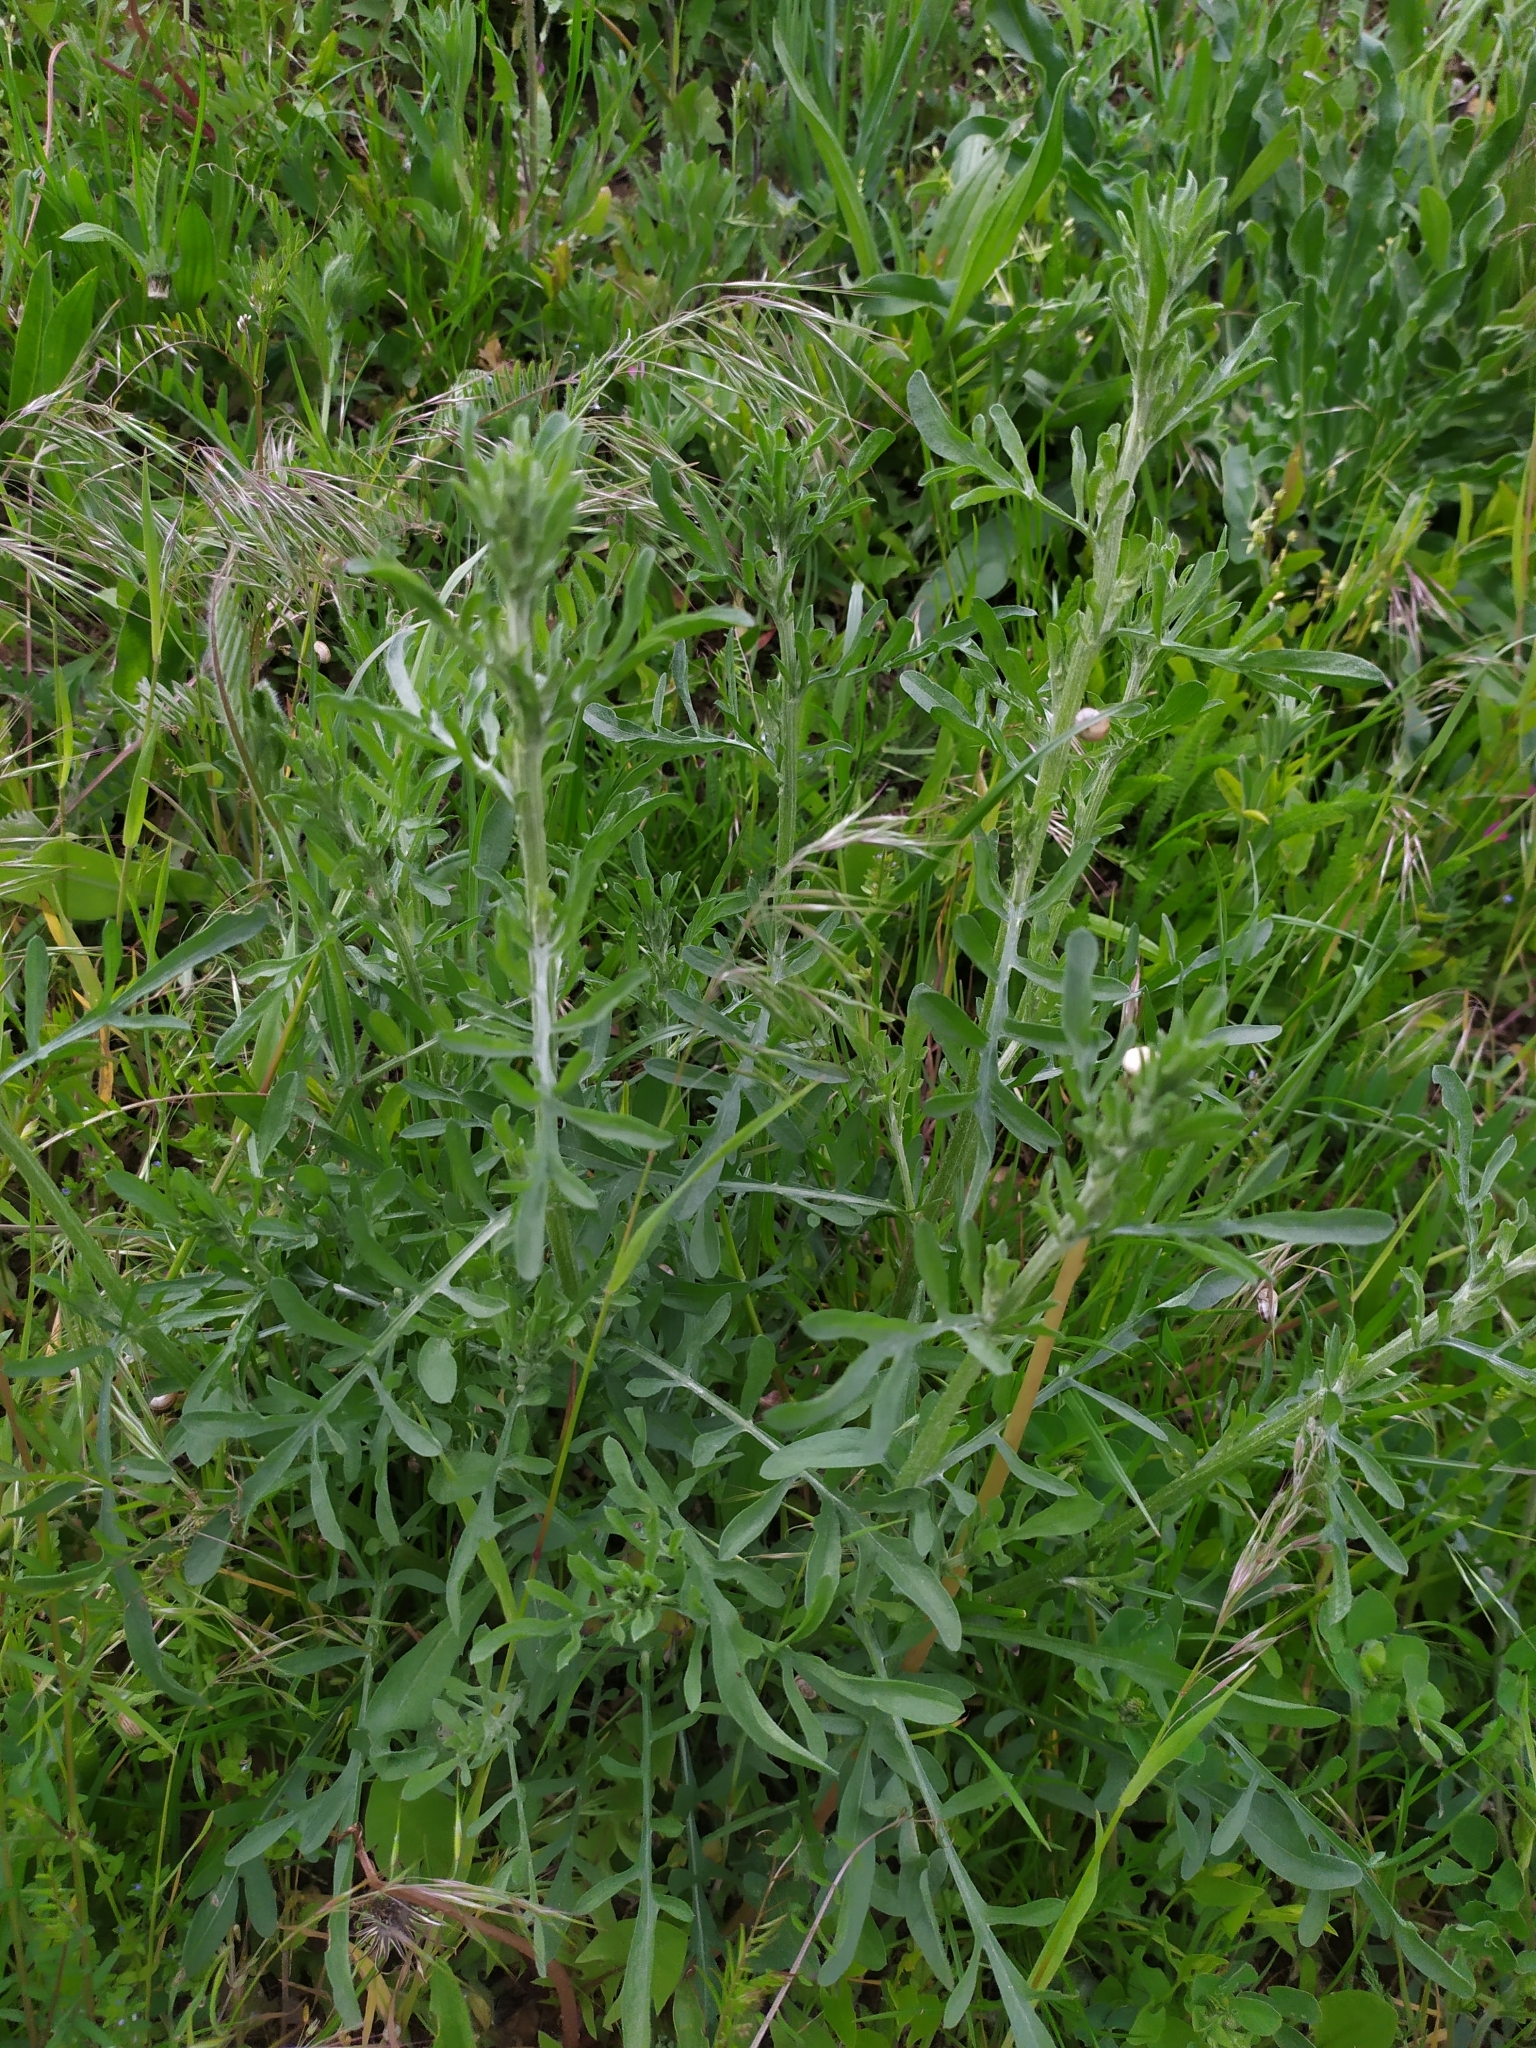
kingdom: Plantae
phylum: Tracheophyta
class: Magnoliopsida
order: Asterales
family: Asteraceae
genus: Centaurea
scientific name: Centaurea scabiosa
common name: Greater knapweed
